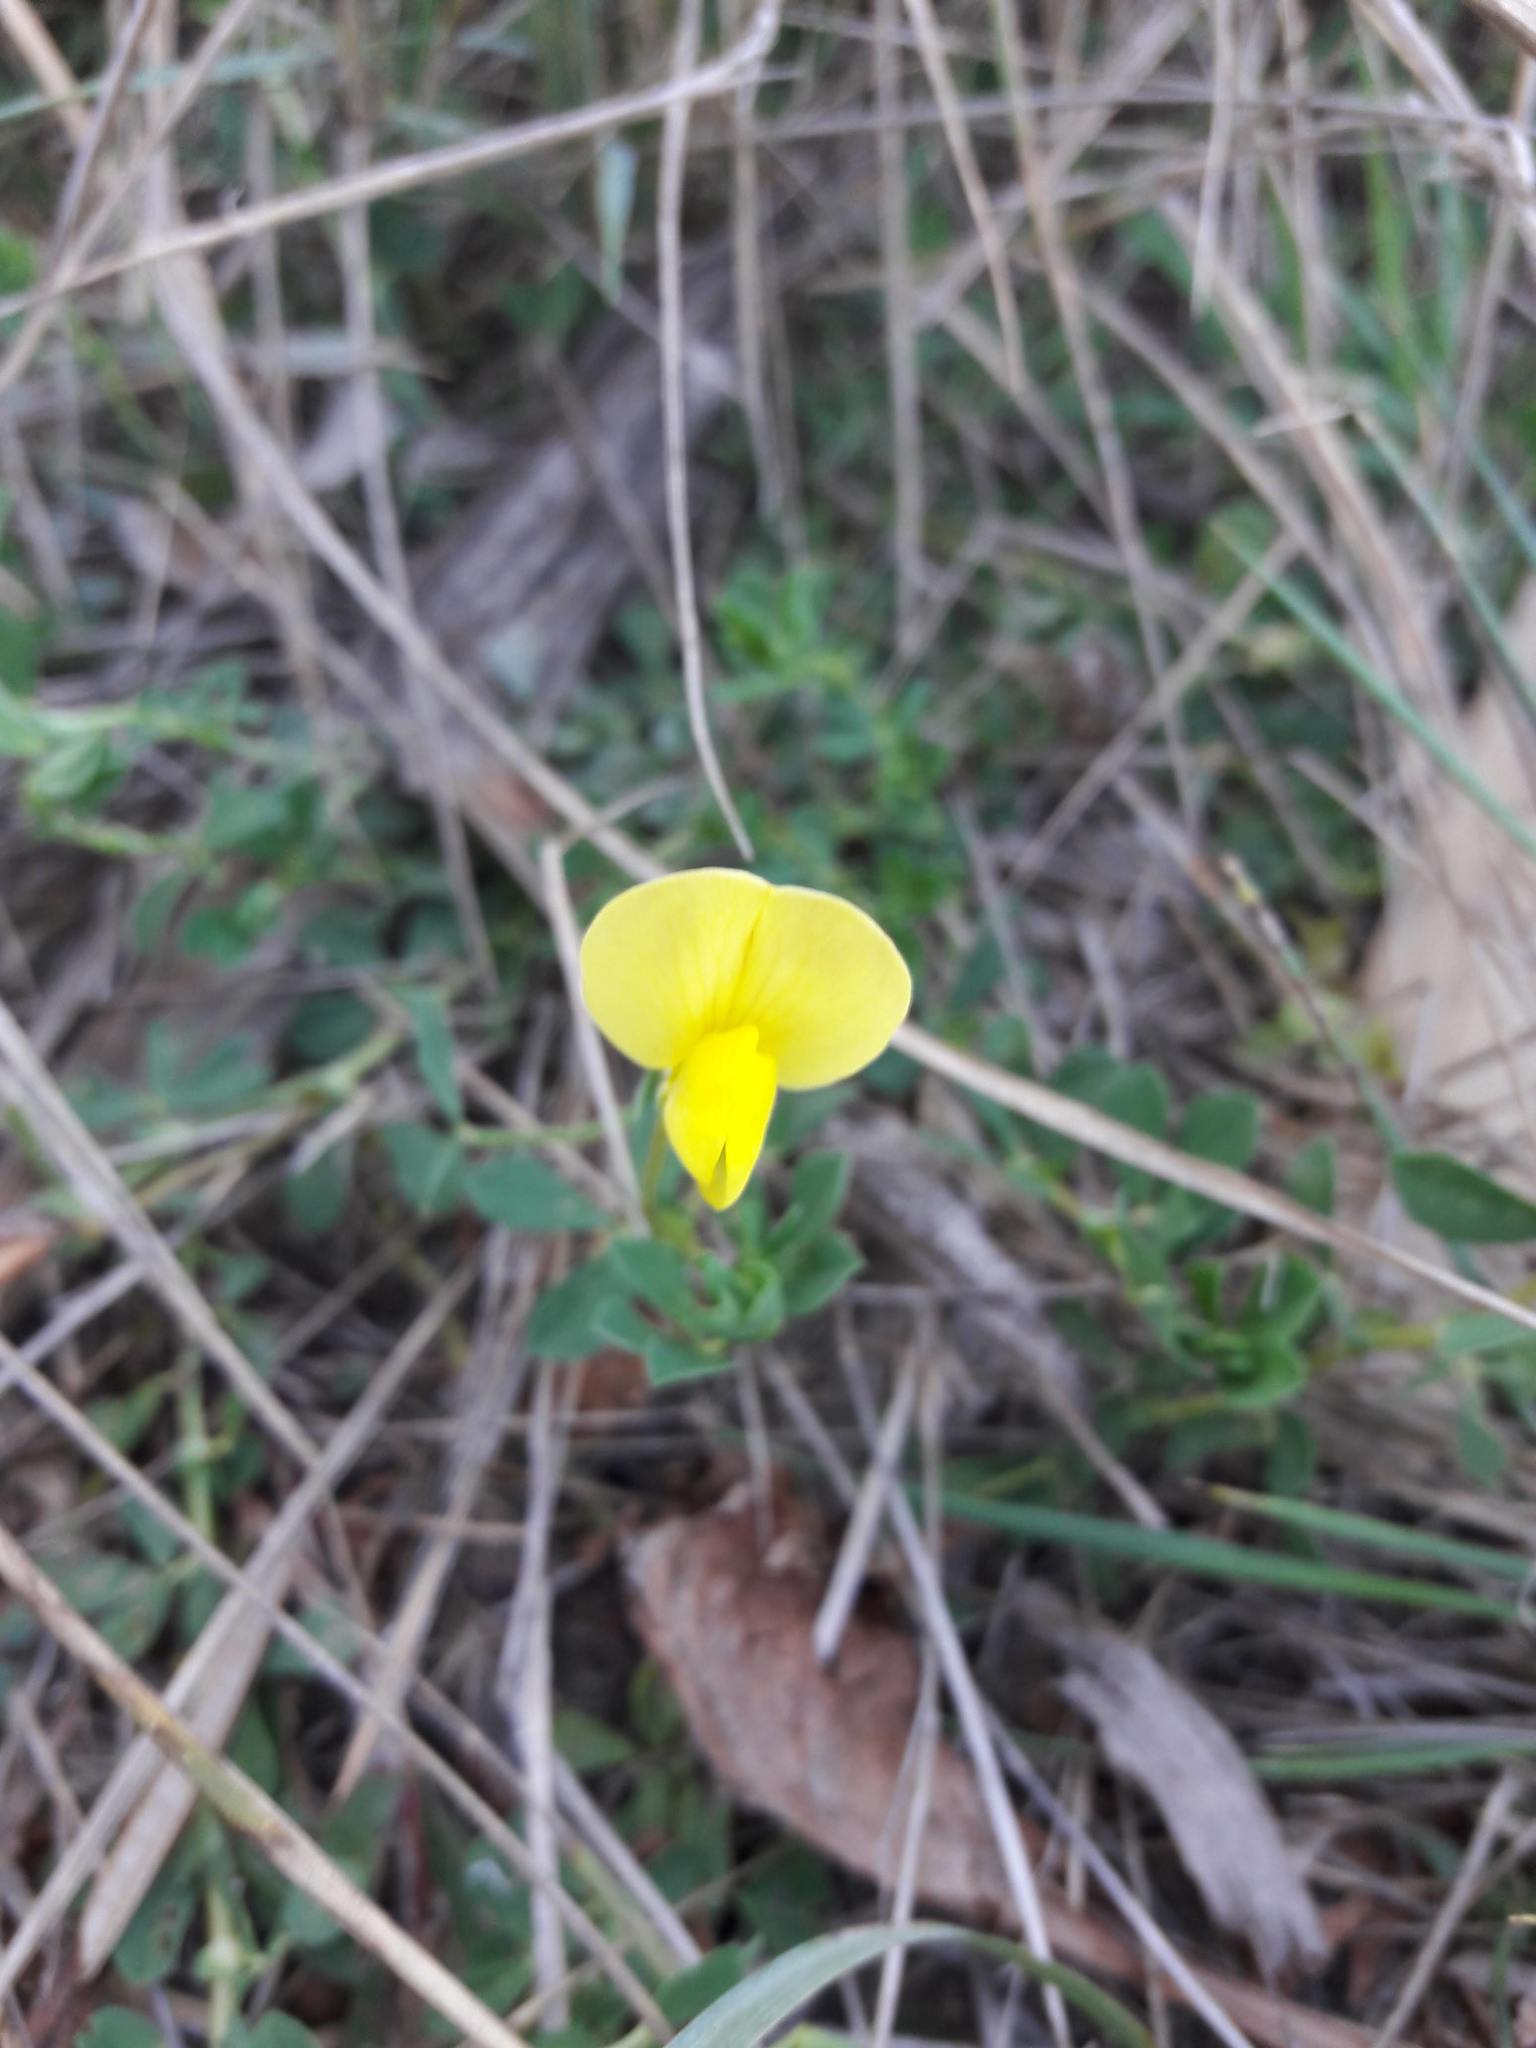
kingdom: Plantae
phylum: Tracheophyta
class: Magnoliopsida
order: Fabales
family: Fabaceae
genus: Lotus
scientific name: Lotus maritimus
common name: Dragon's-teeth
